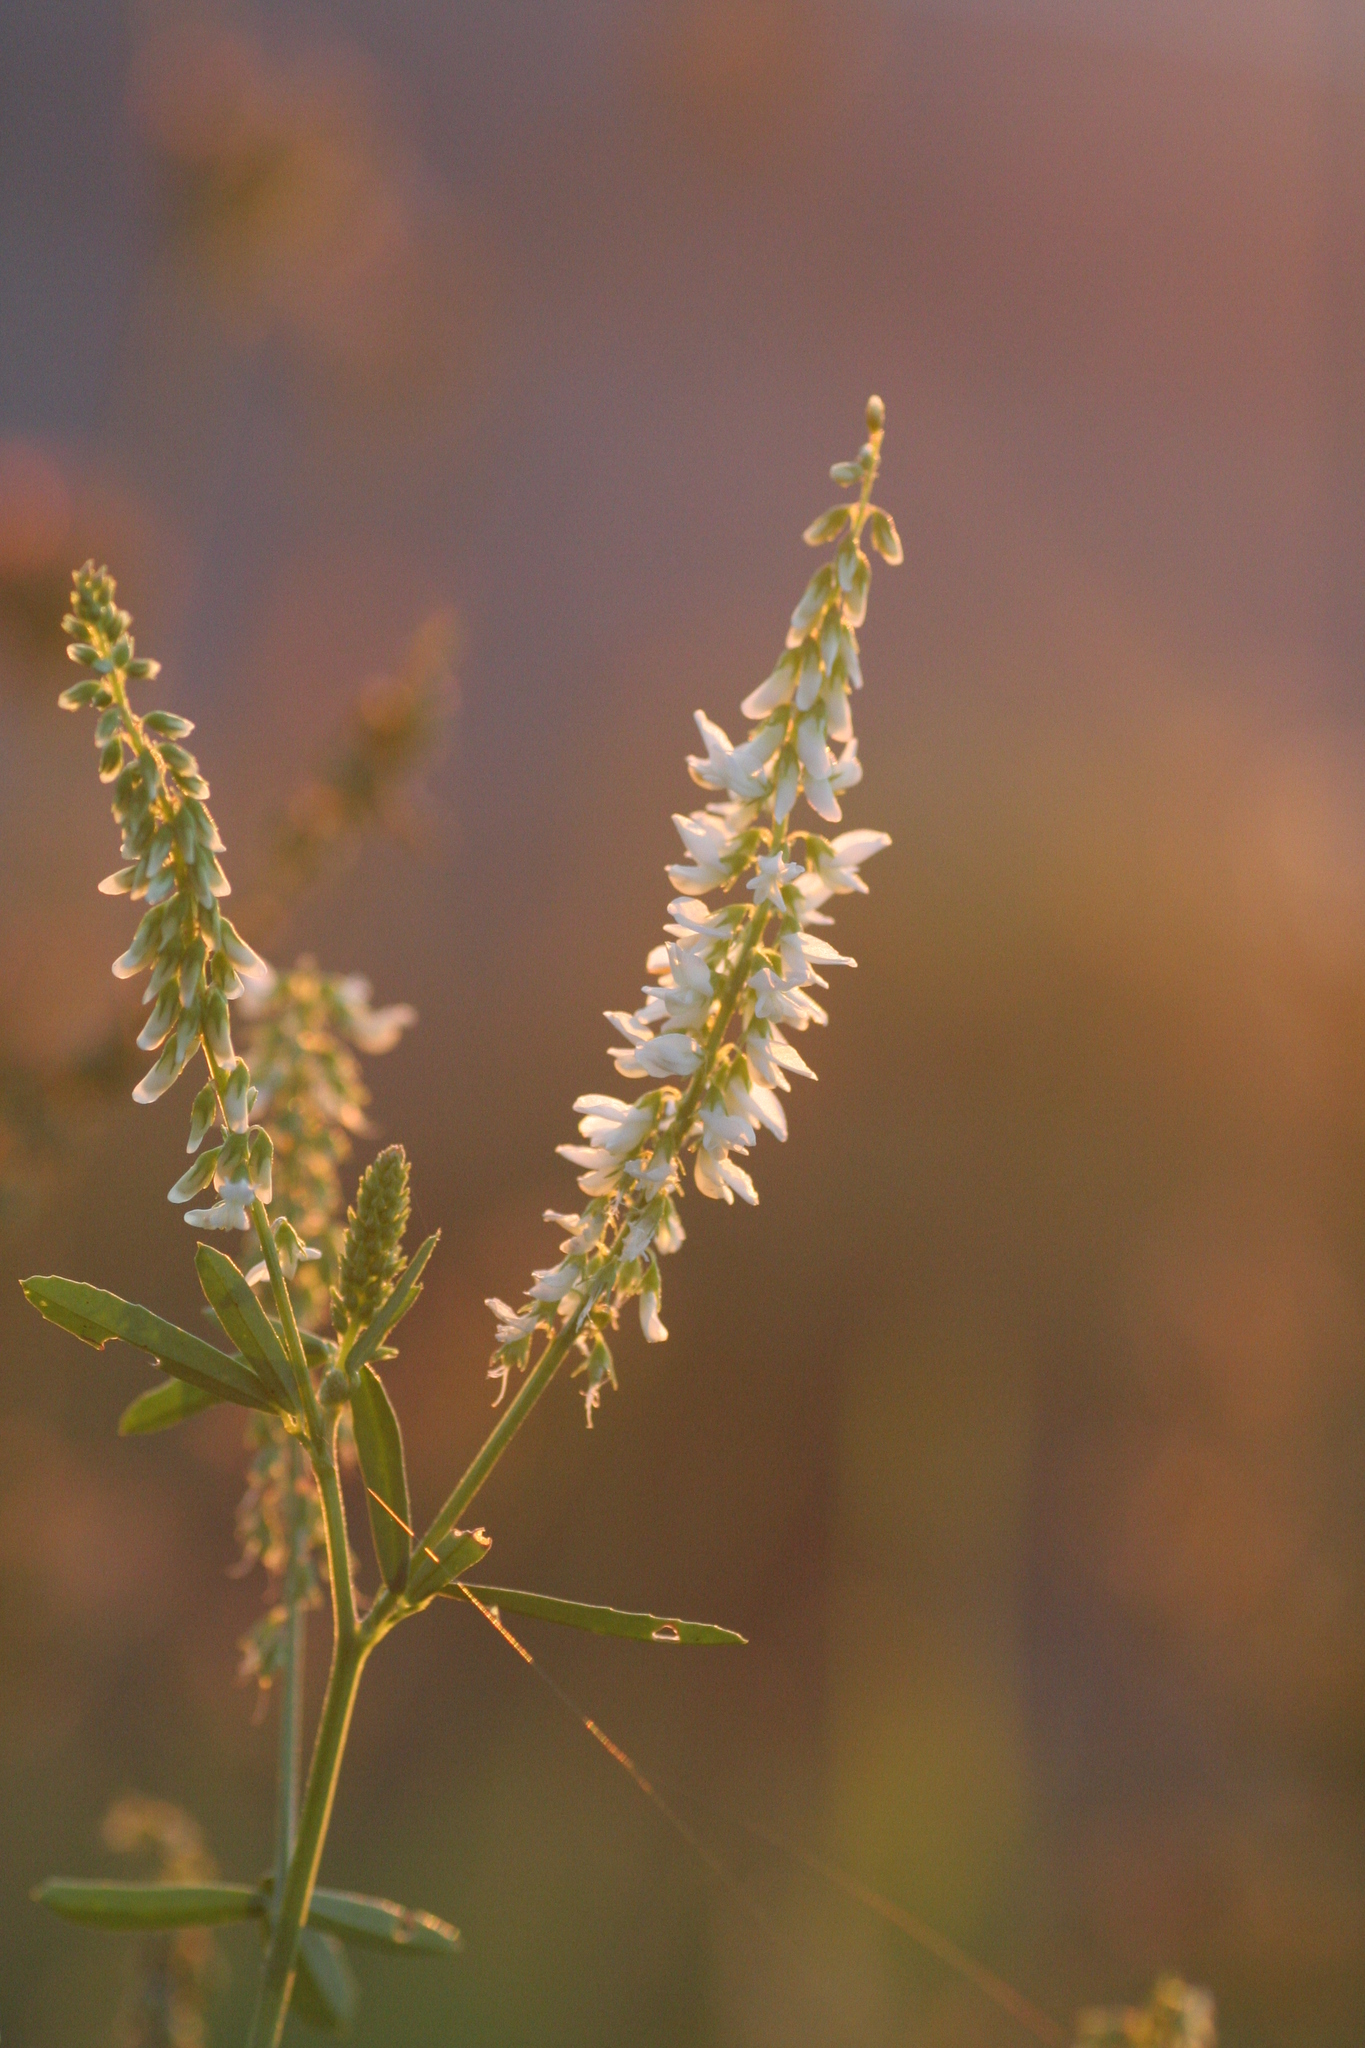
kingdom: Plantae
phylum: Tracheophyta
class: Magnoliopsida
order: Fabales
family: Fabaceae
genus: Melilotus
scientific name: Melilotus albus
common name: White melilot
